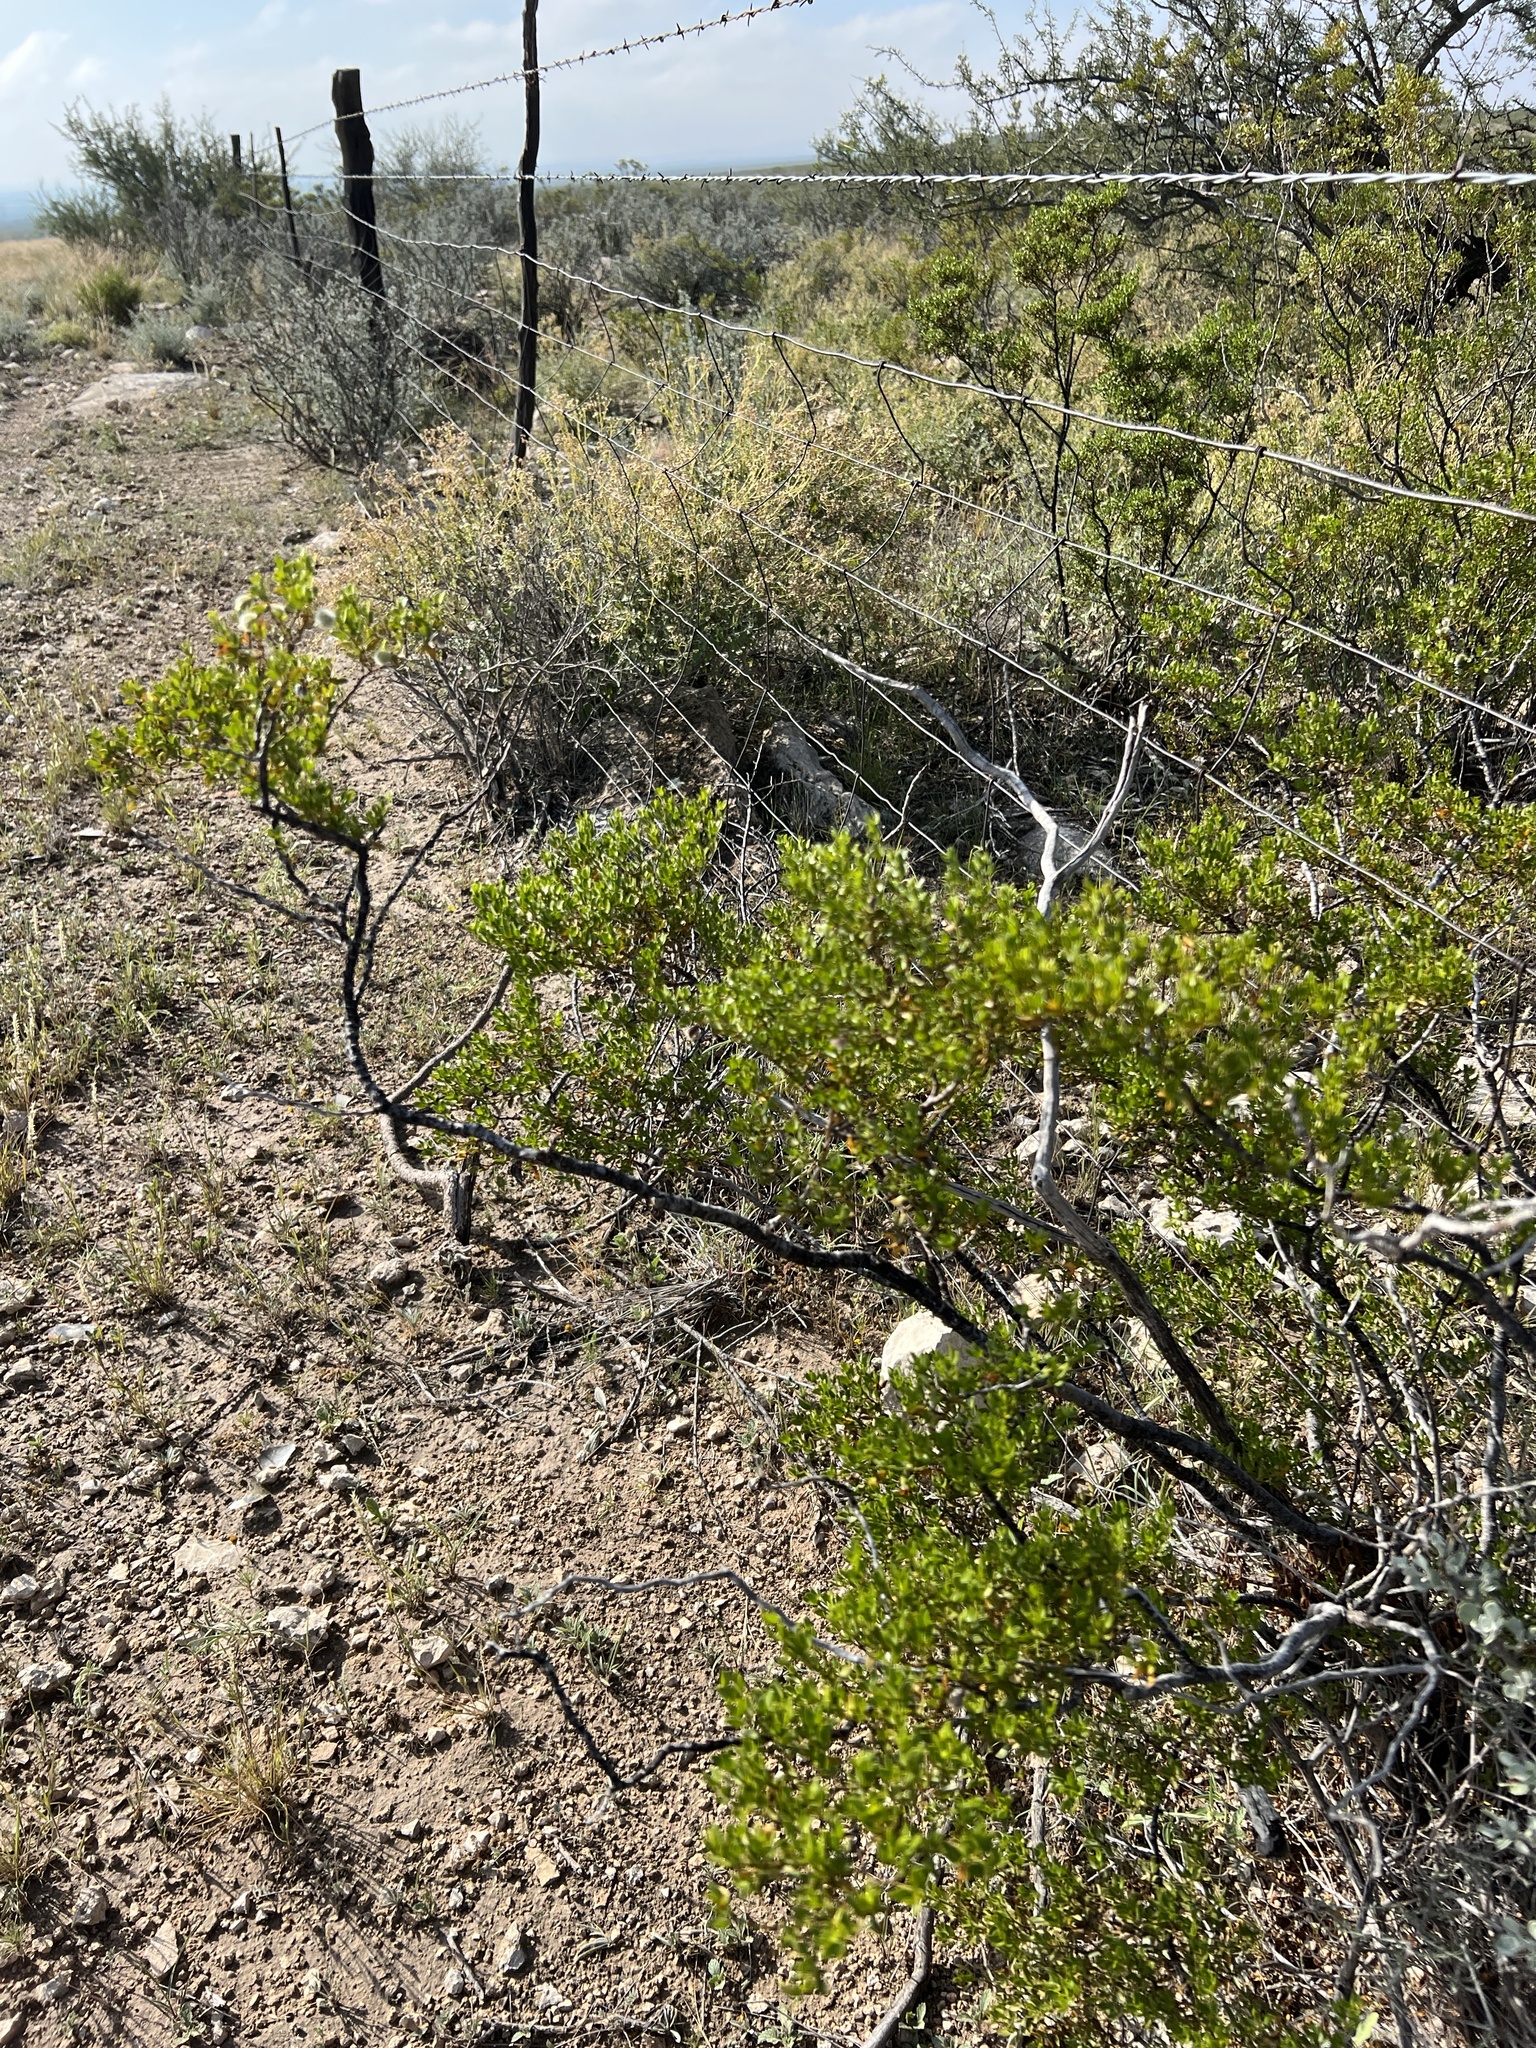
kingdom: Plantae
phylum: Tracheophyta
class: Magnoliopsida
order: Zygophyllales
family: Zygophyllaceae
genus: Larrea
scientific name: Larrea tridentata
